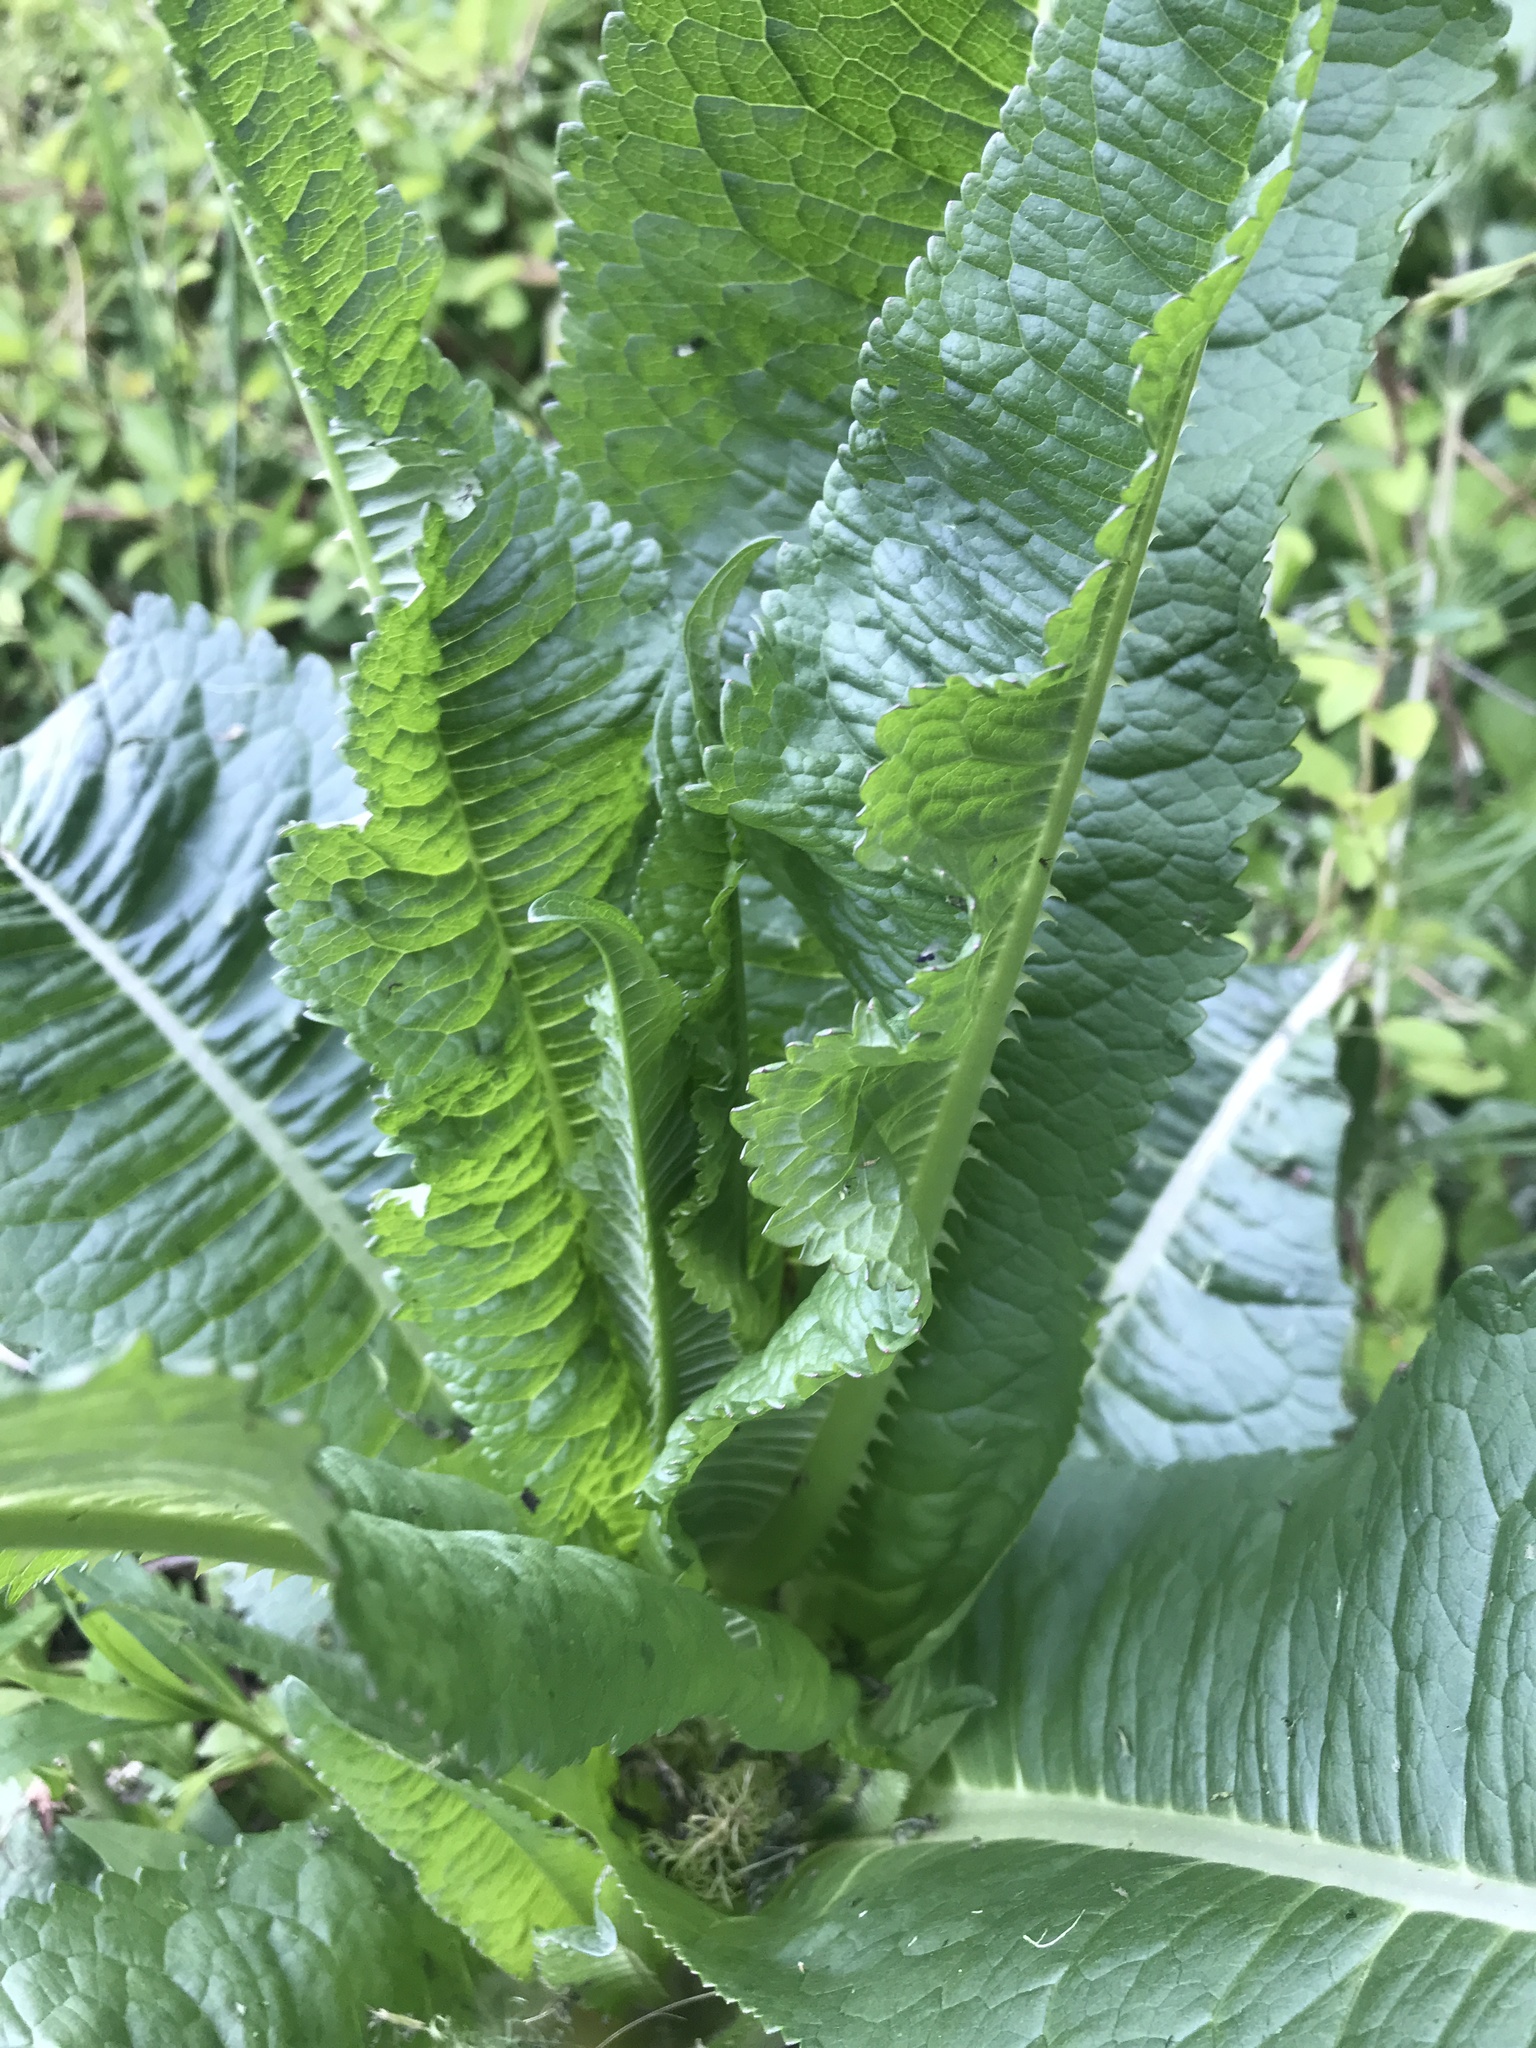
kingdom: Plantae
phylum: Tracheophyta
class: Magnoliopsida
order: Dipsacales
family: Caprifoliaceae
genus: Dipsacus
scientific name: Dipsacus fullonum
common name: Teasel
